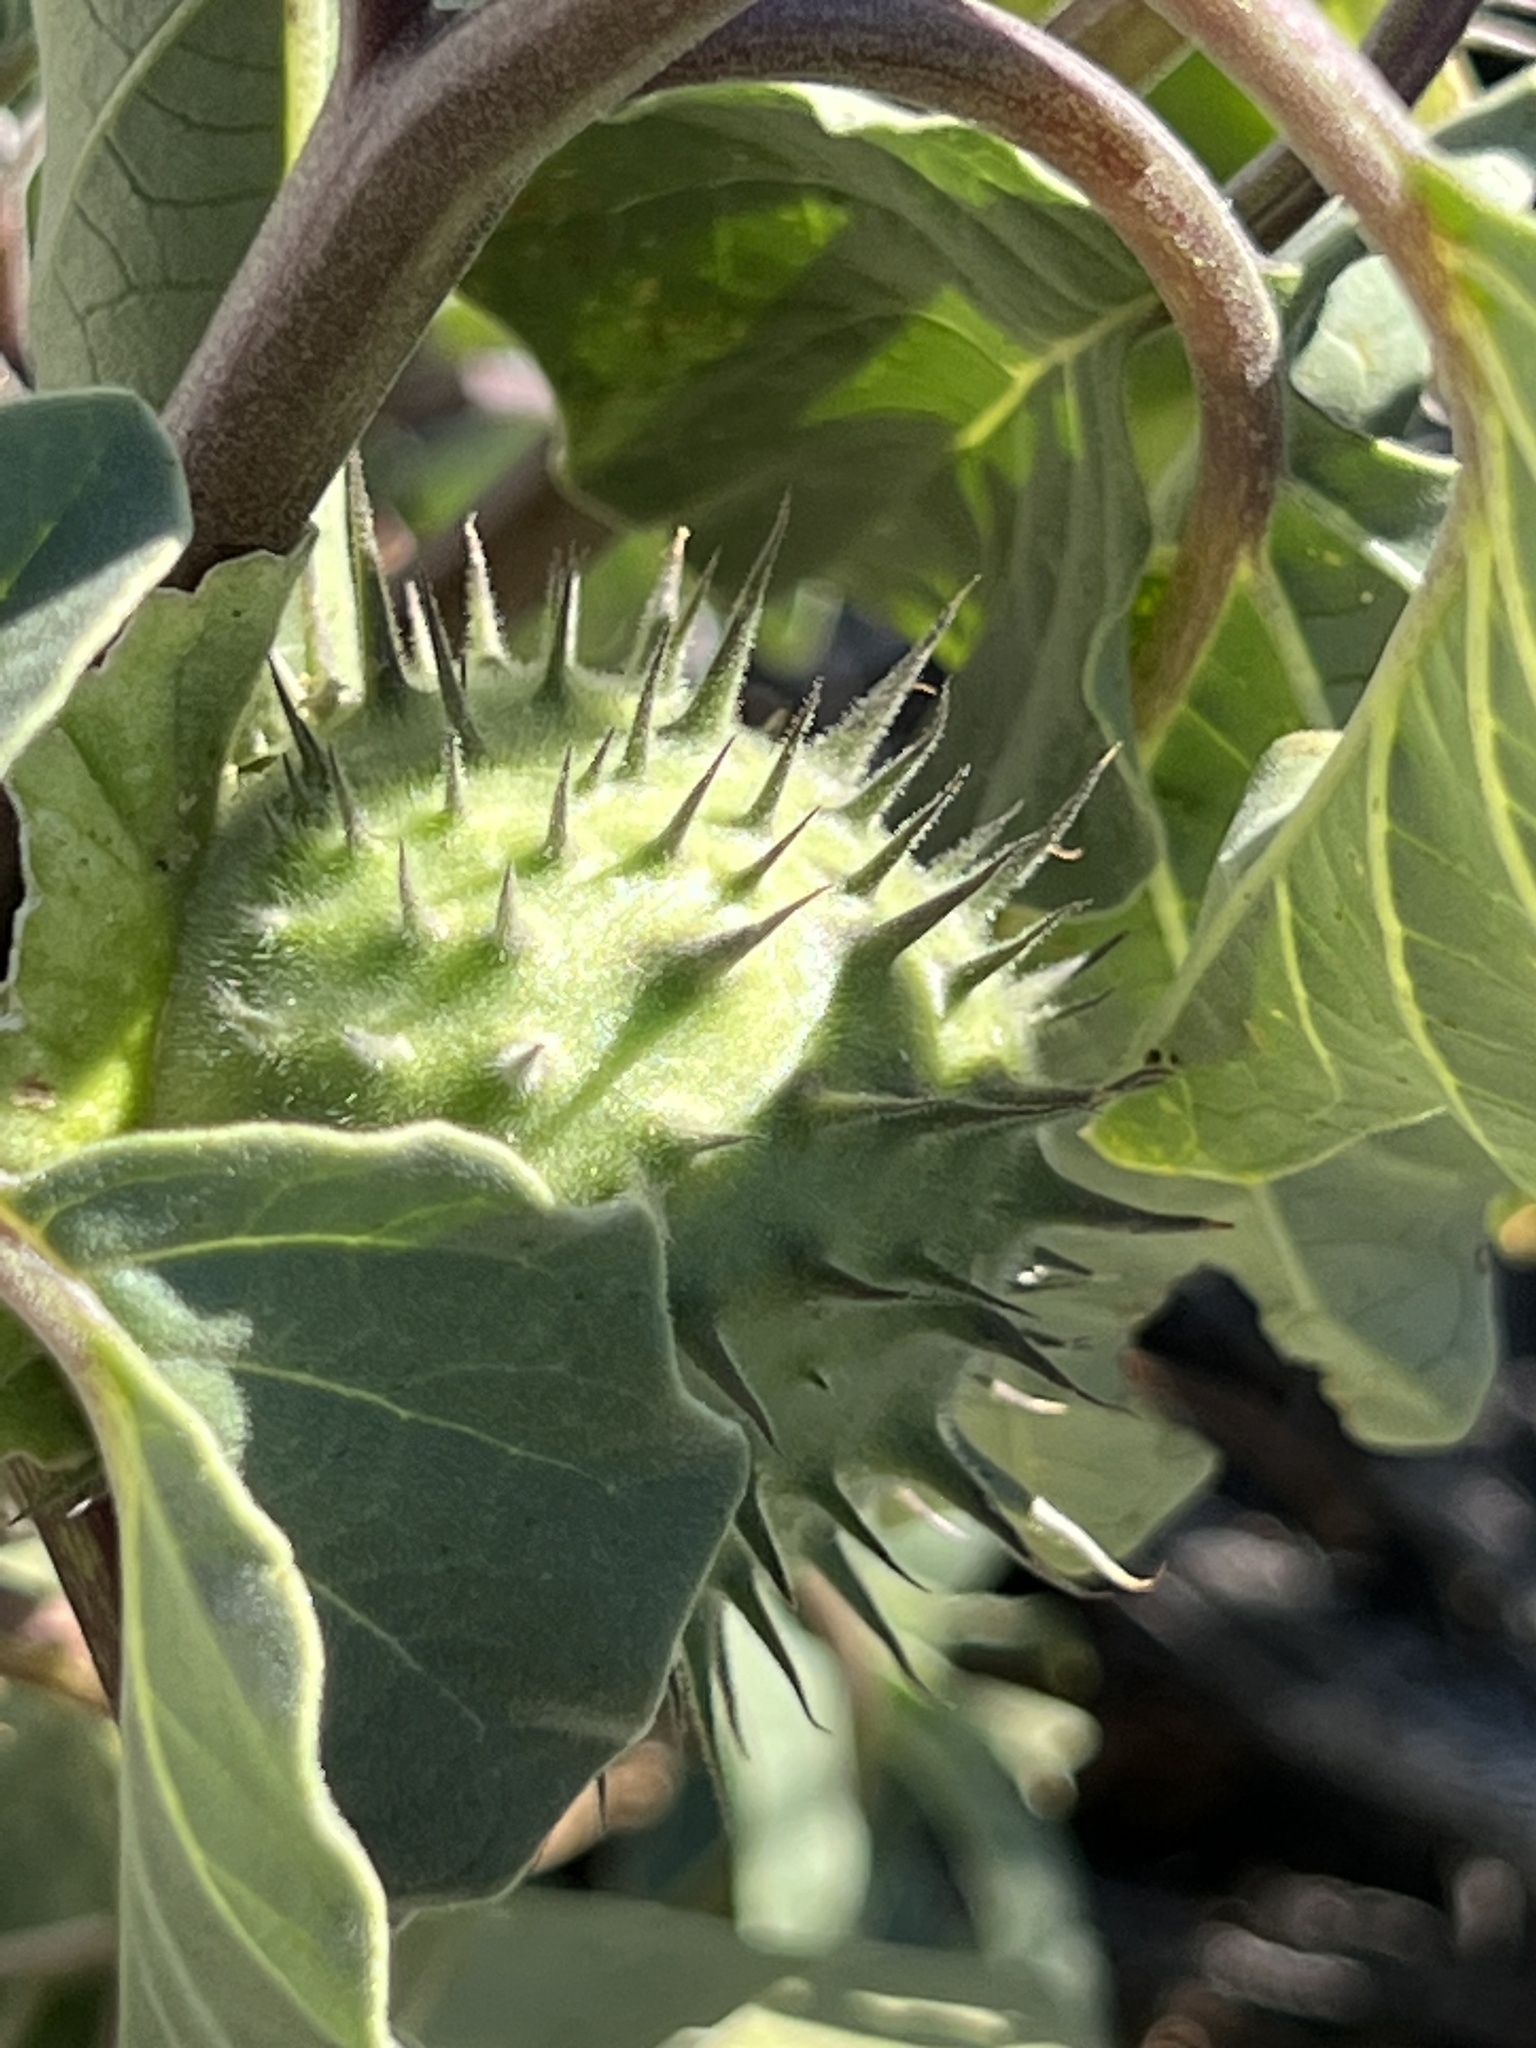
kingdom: Plantae
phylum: Tracheophyta
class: Magnoliopsida
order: Solanales
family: Solanaceae
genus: Datura
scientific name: Datura discolor
